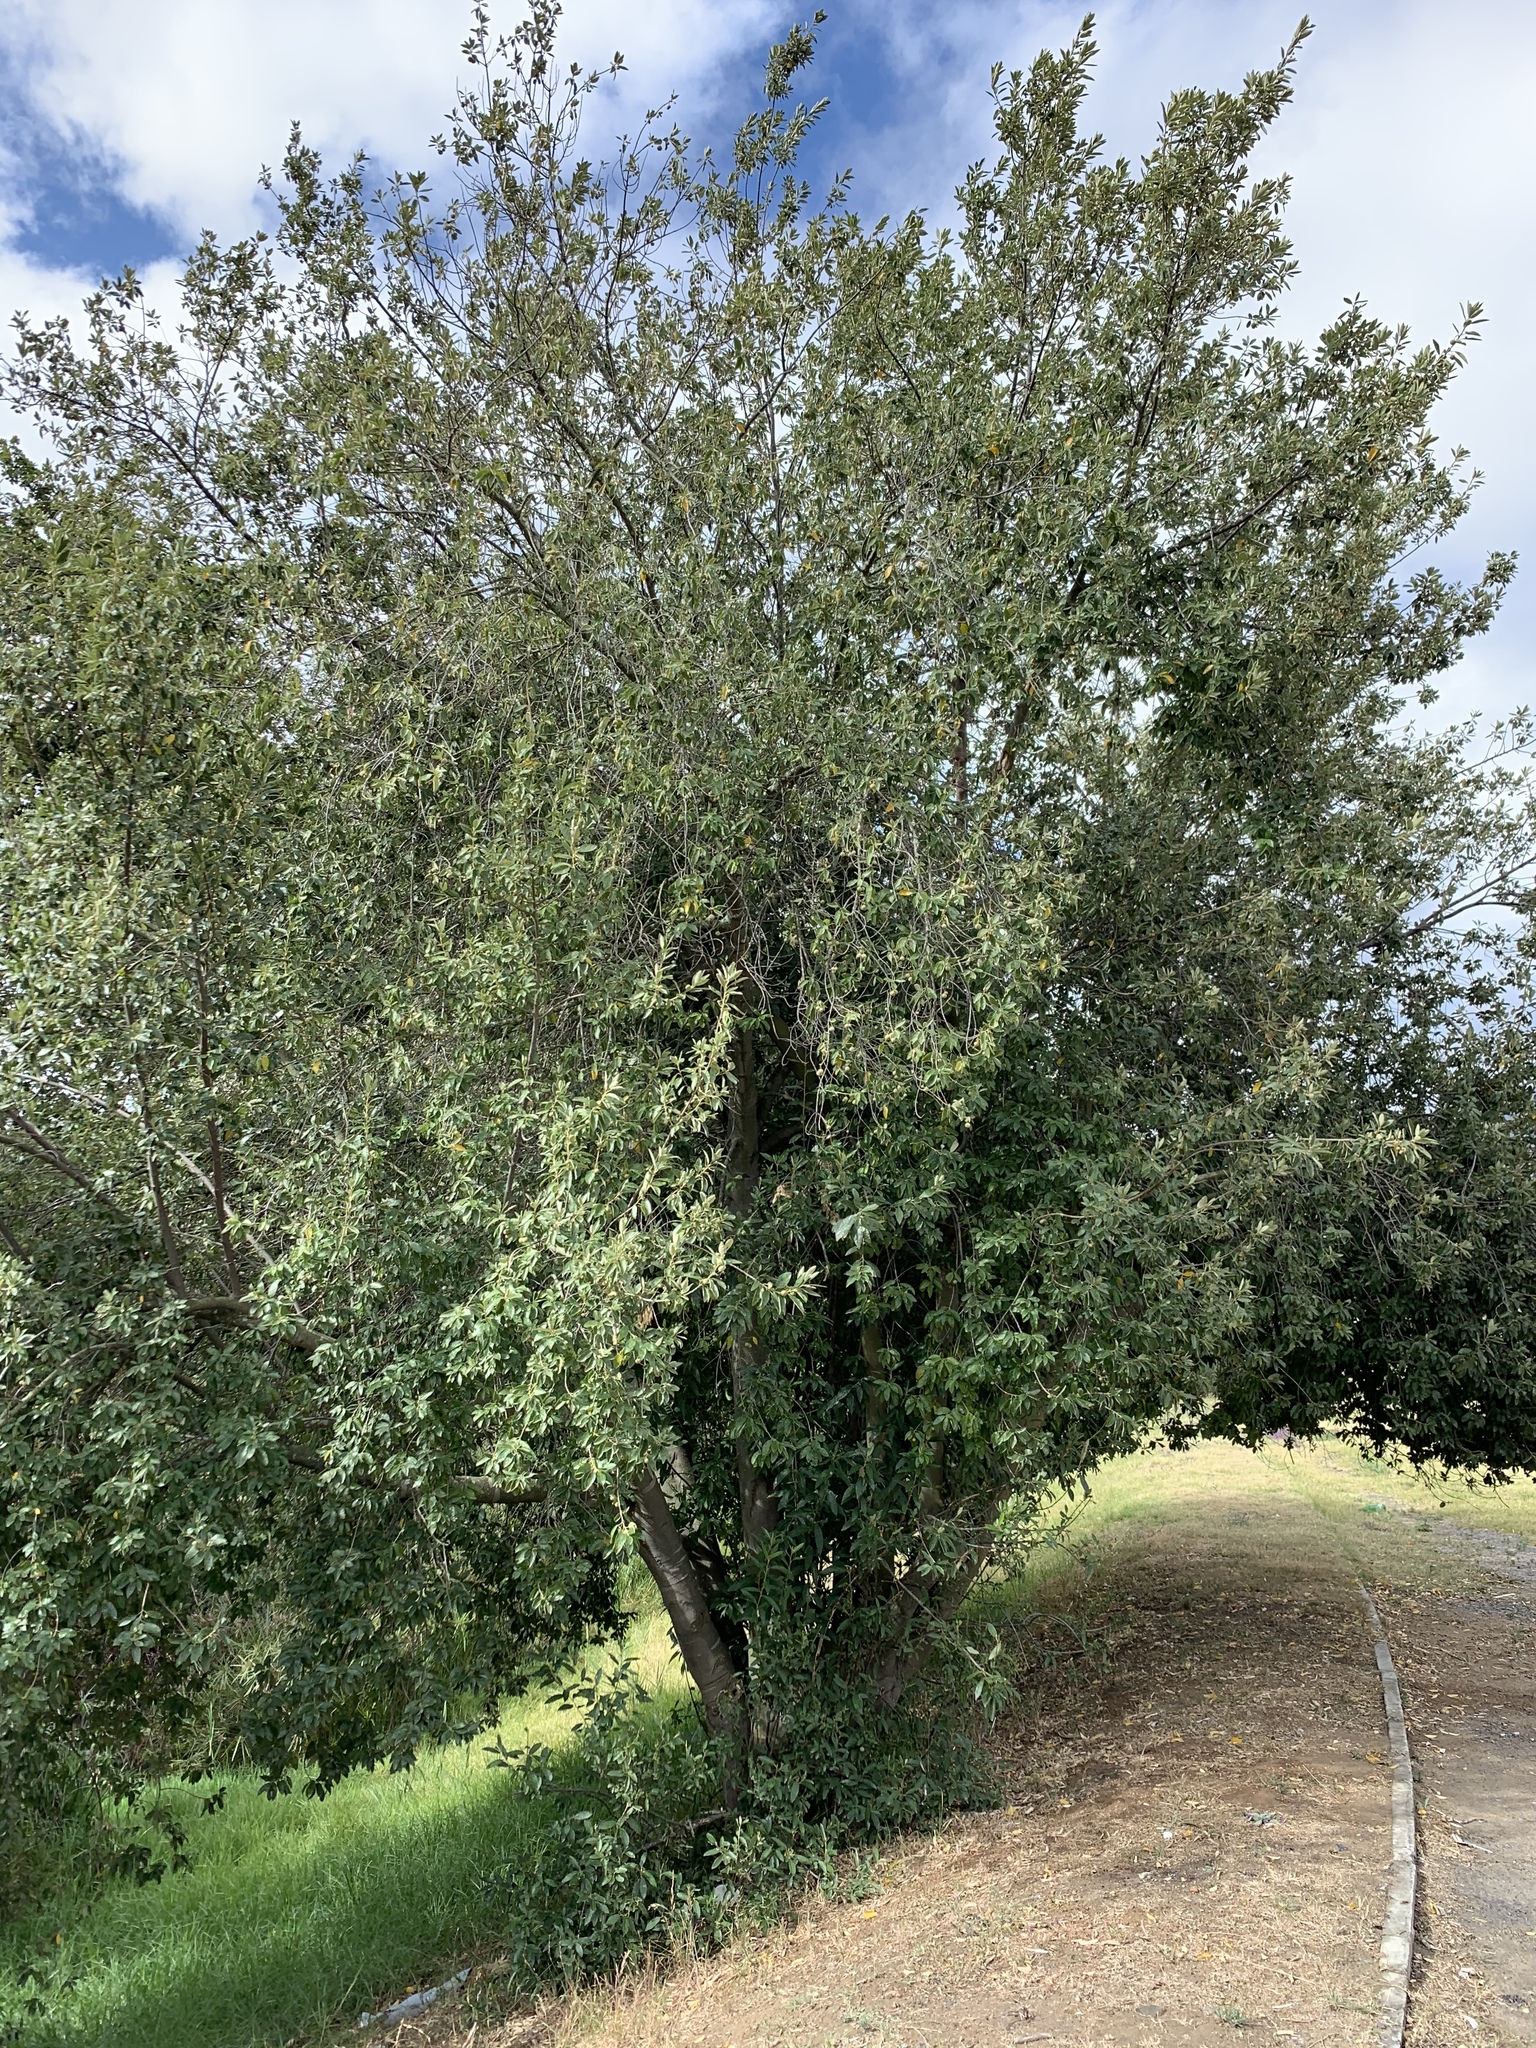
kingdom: Plantae
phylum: Tracheophyta
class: Magnoliopsida
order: Malpighiales
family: Achariaceae
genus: Kiggelaria
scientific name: Kiggelaria africana
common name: Wild peach
